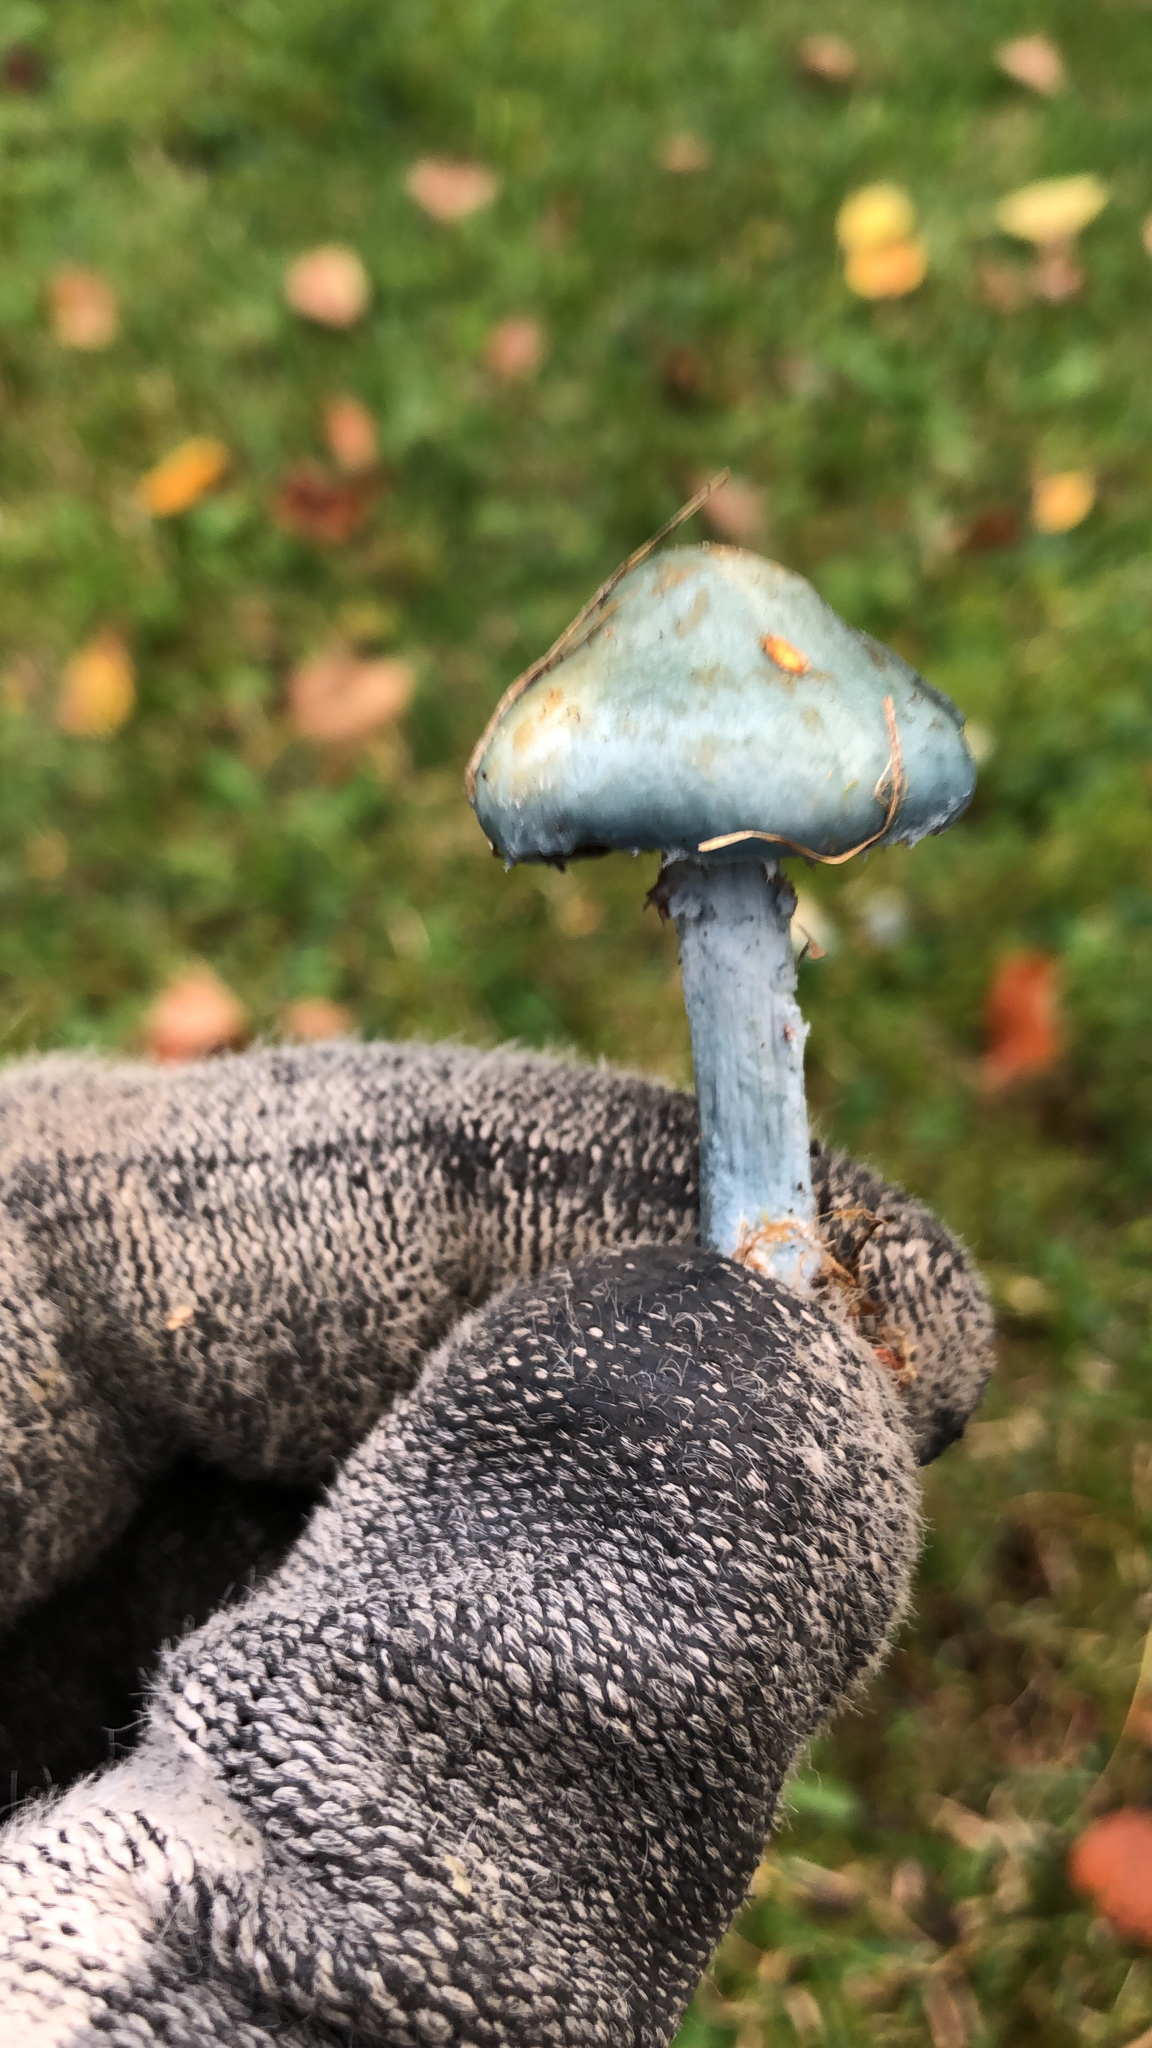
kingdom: Fungi
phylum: Basidiomycota
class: Agaricomycetes
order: Agaricales
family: Strophariaceae
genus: Stropharia
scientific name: Stropharia aeruginosa
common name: Verdigris roundhead
